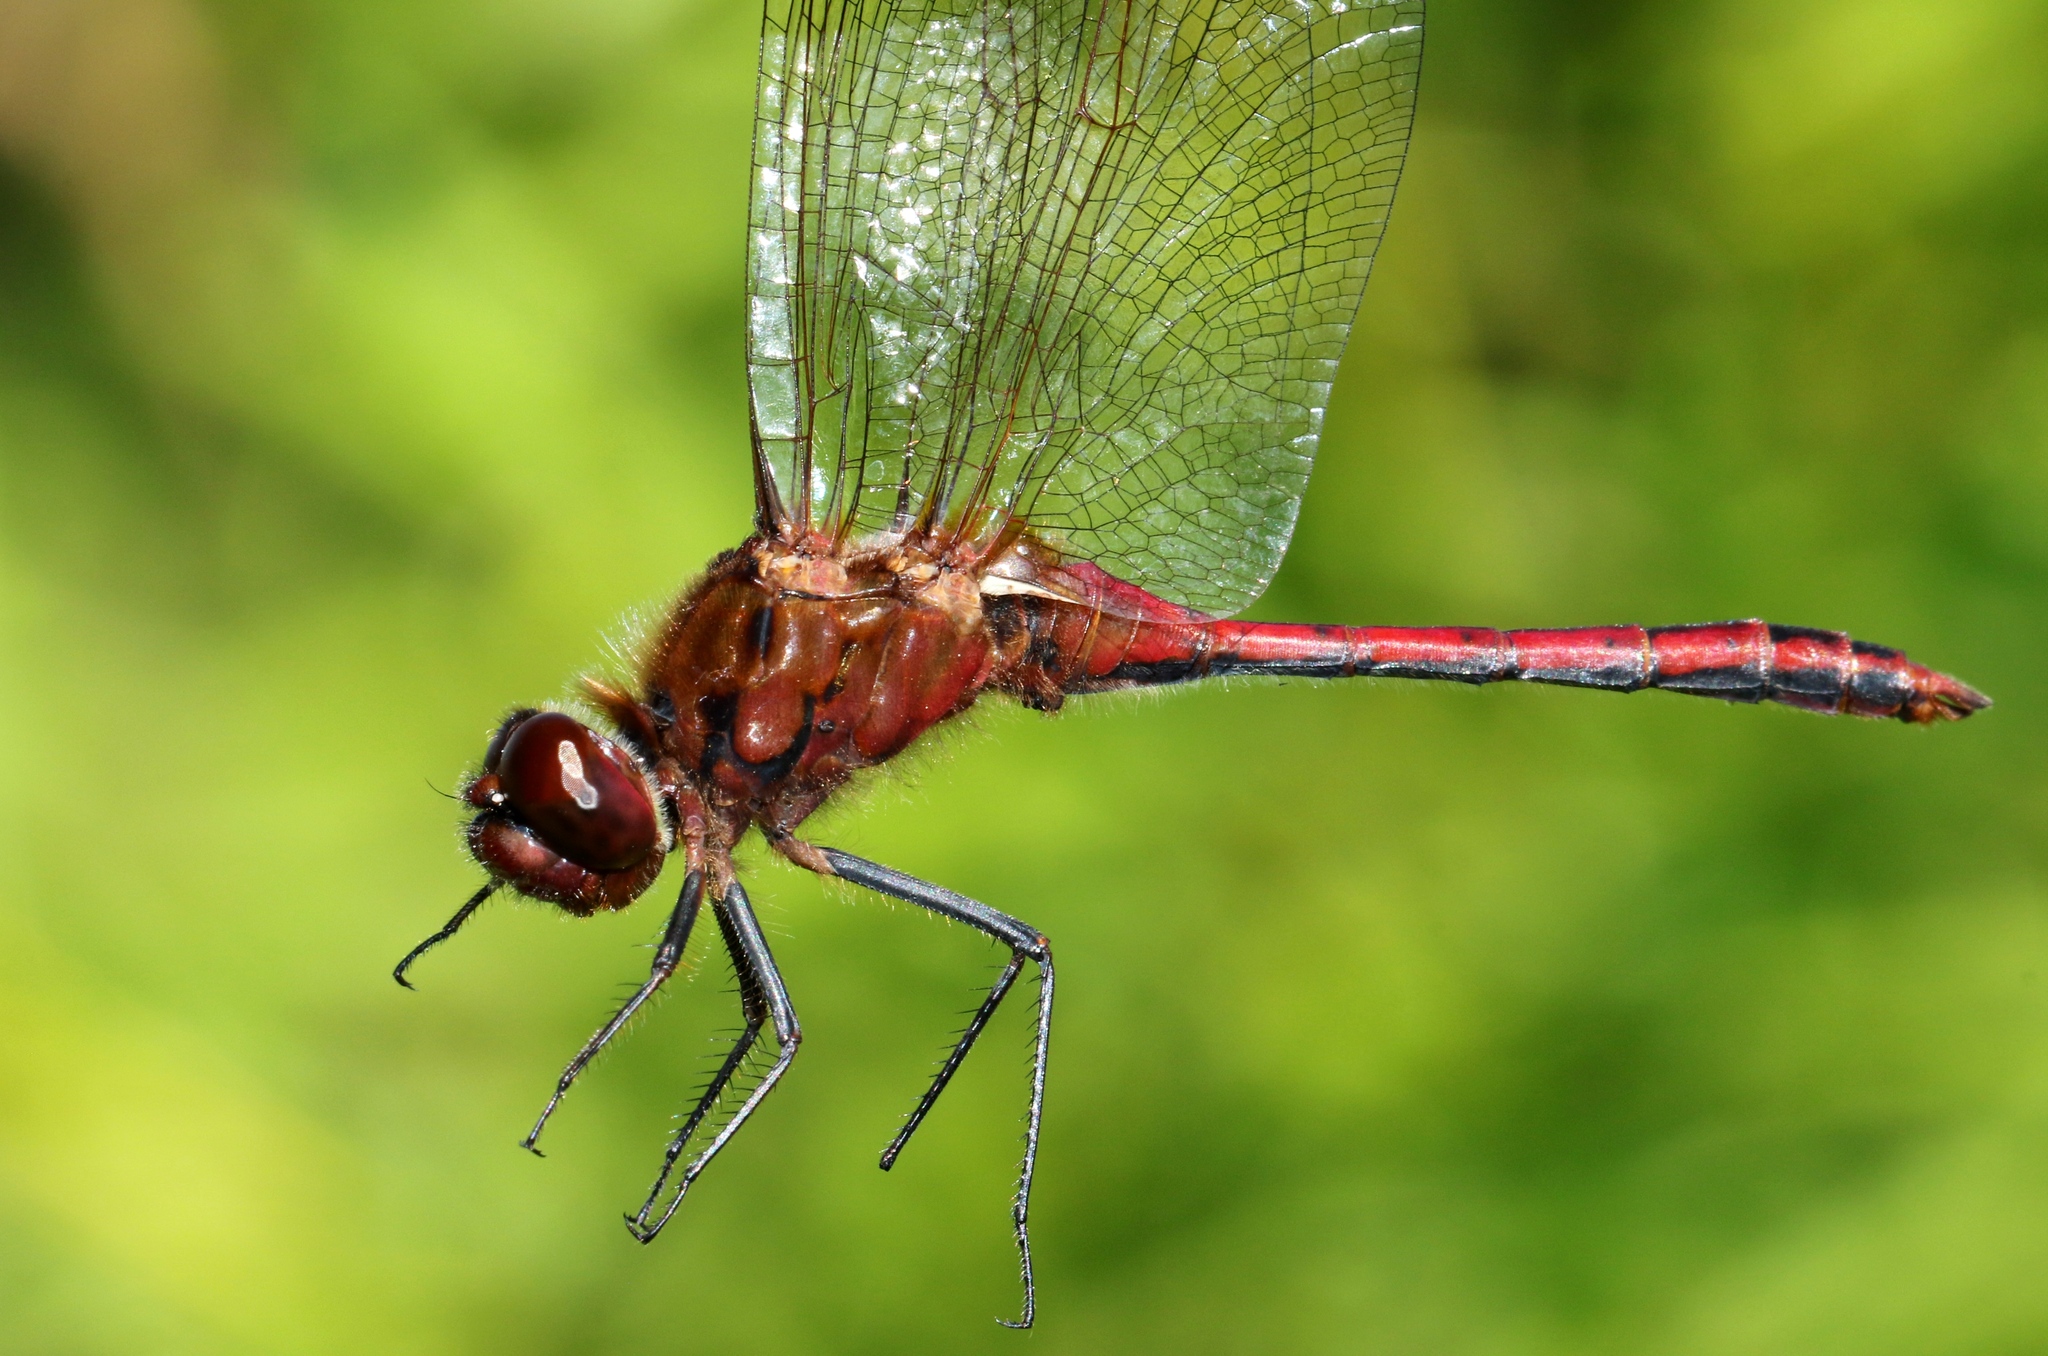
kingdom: Animalia
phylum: Arthropoda
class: Insecta
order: Odonata
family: Libellulidae
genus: Sympetrum
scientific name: Sympetrum costiferum
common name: Saffron-winged meadowhawk
